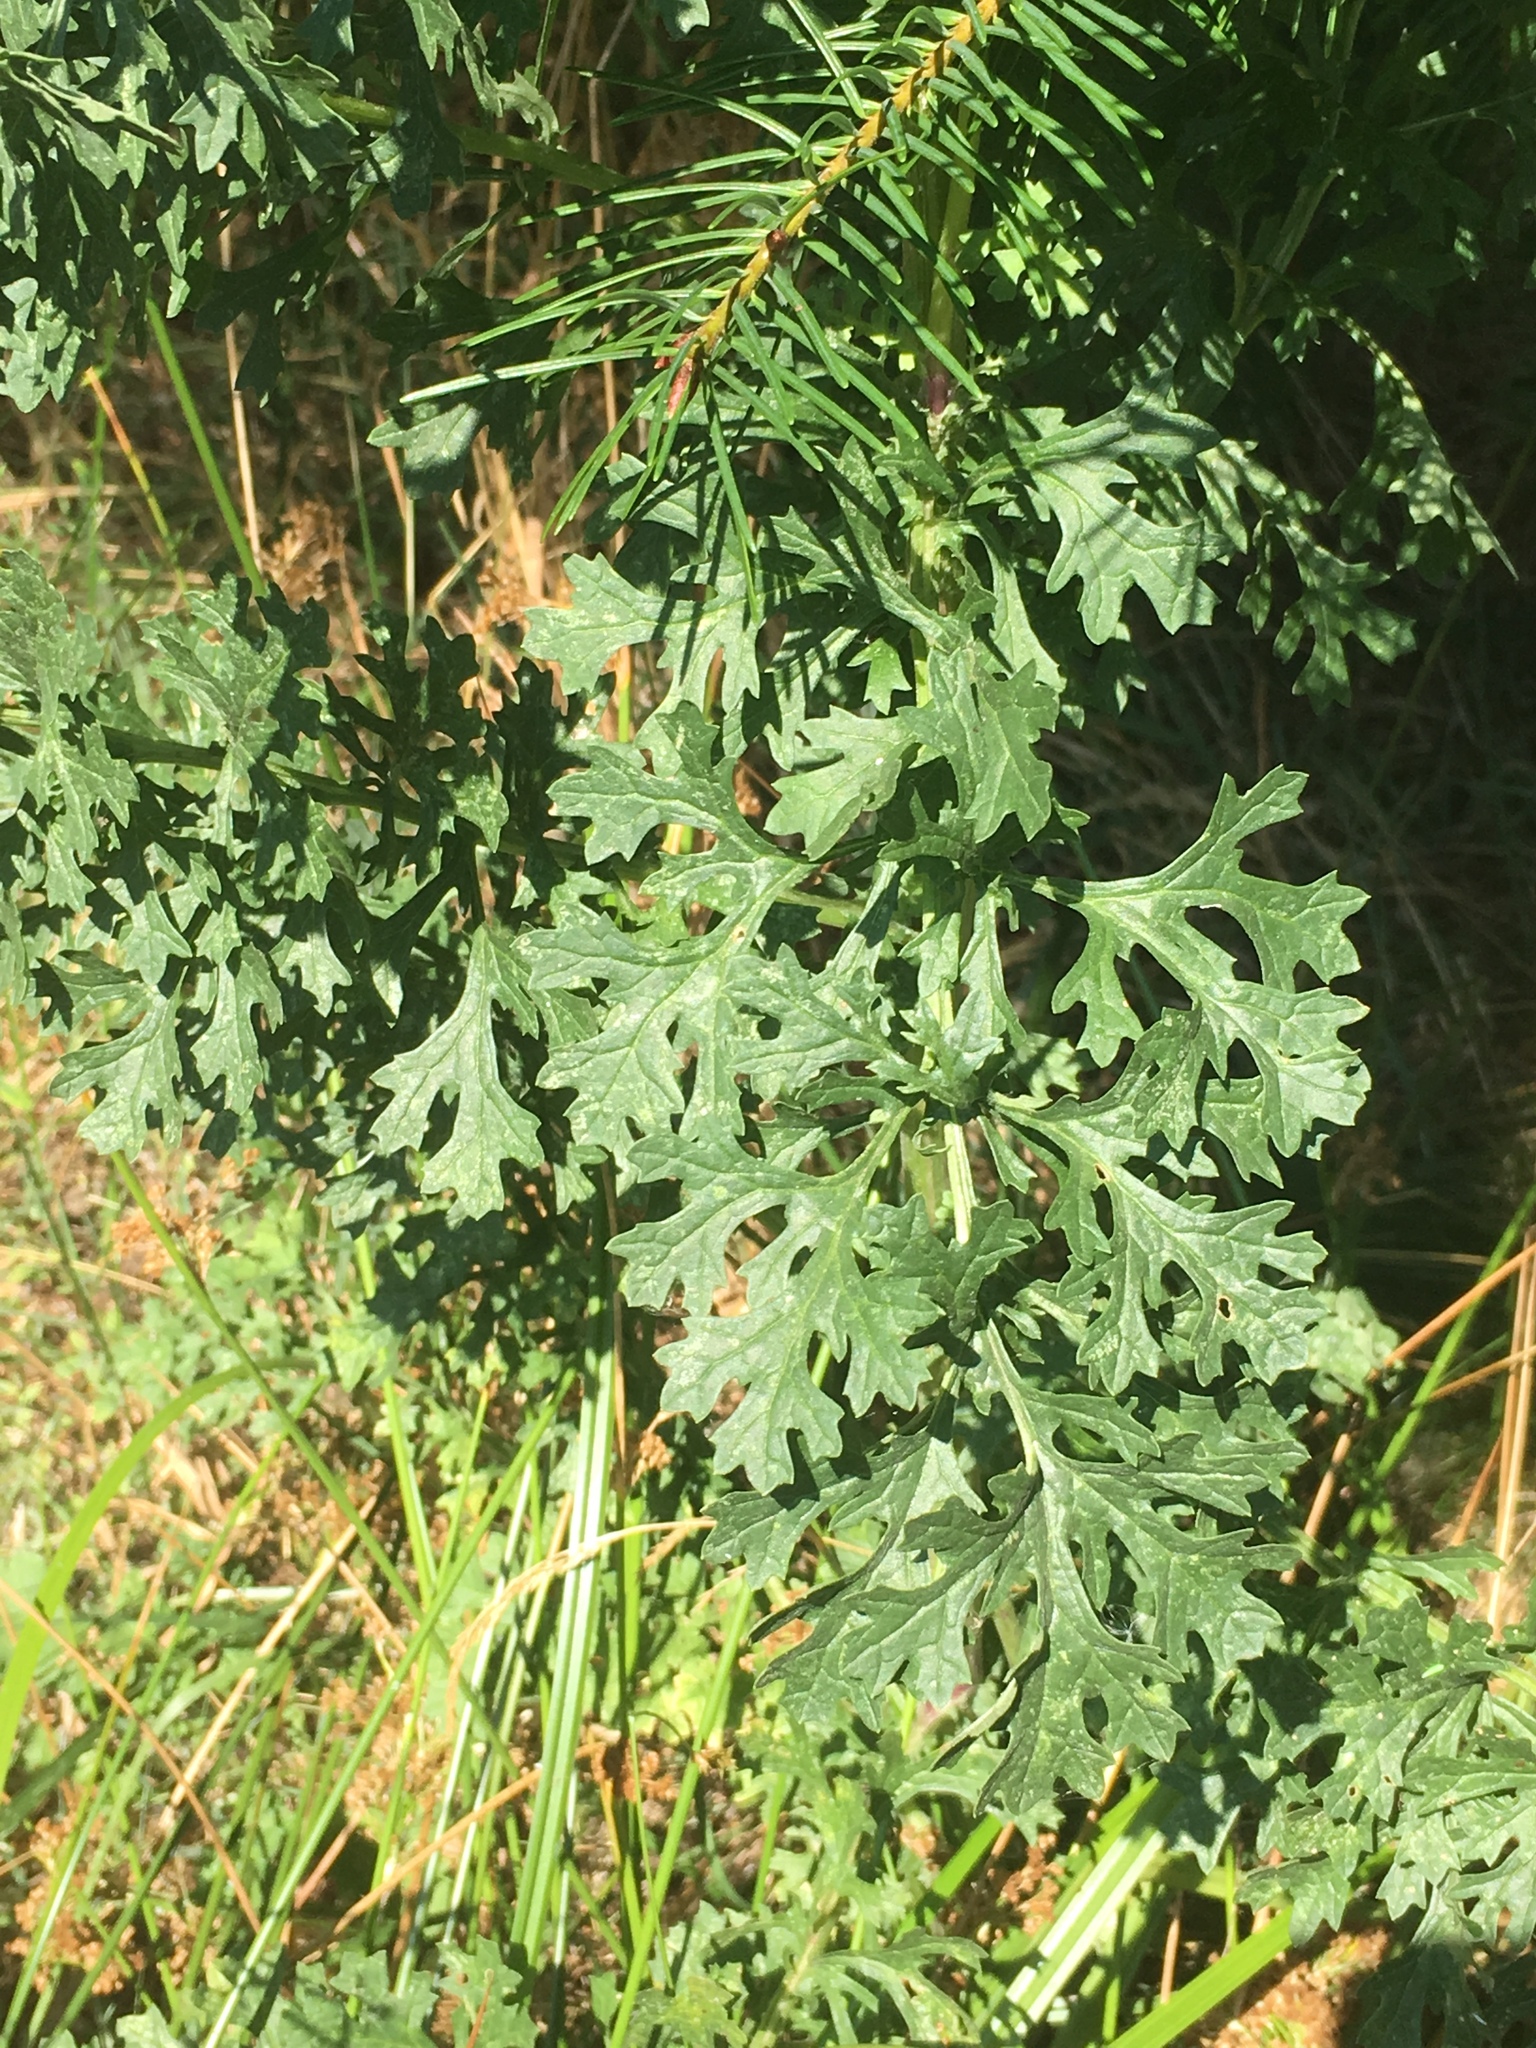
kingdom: Plantae
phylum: Tracheophyta
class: Magnoliopsida
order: Asterales
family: Asteraceae
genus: Jacobaea
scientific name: Jacobaea vulgaris
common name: Stinking willie
